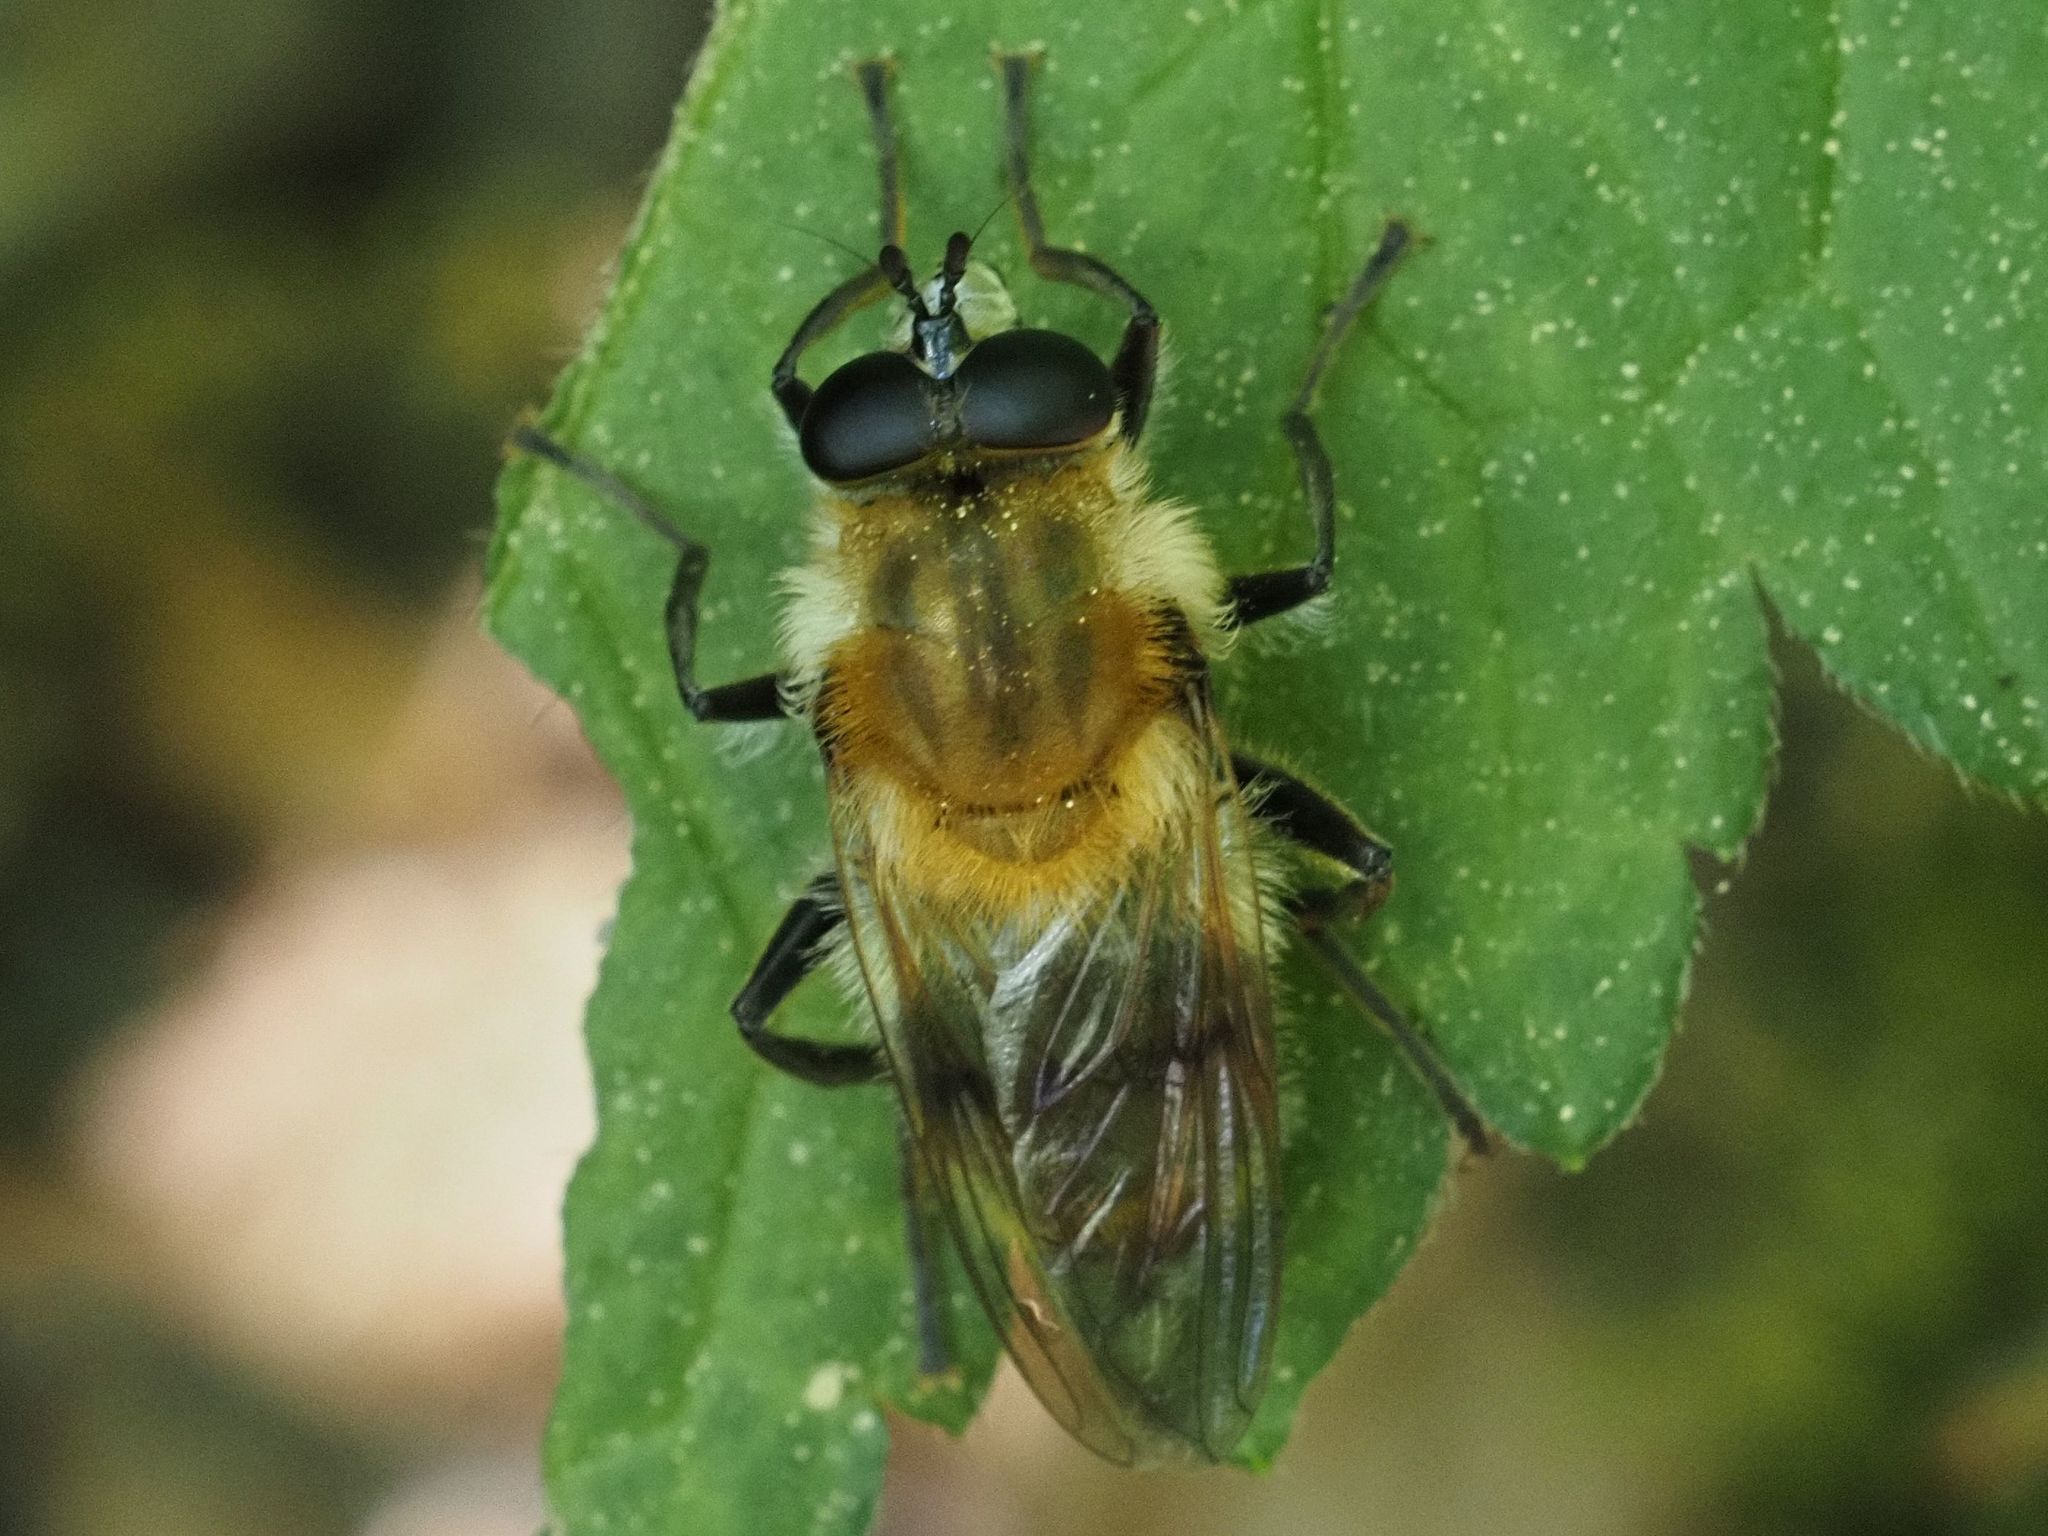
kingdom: Animalia
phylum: Arthropoda
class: Insecta
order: Diptera
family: Syrphidae
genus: Criorhina
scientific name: Criorhina floccosa
